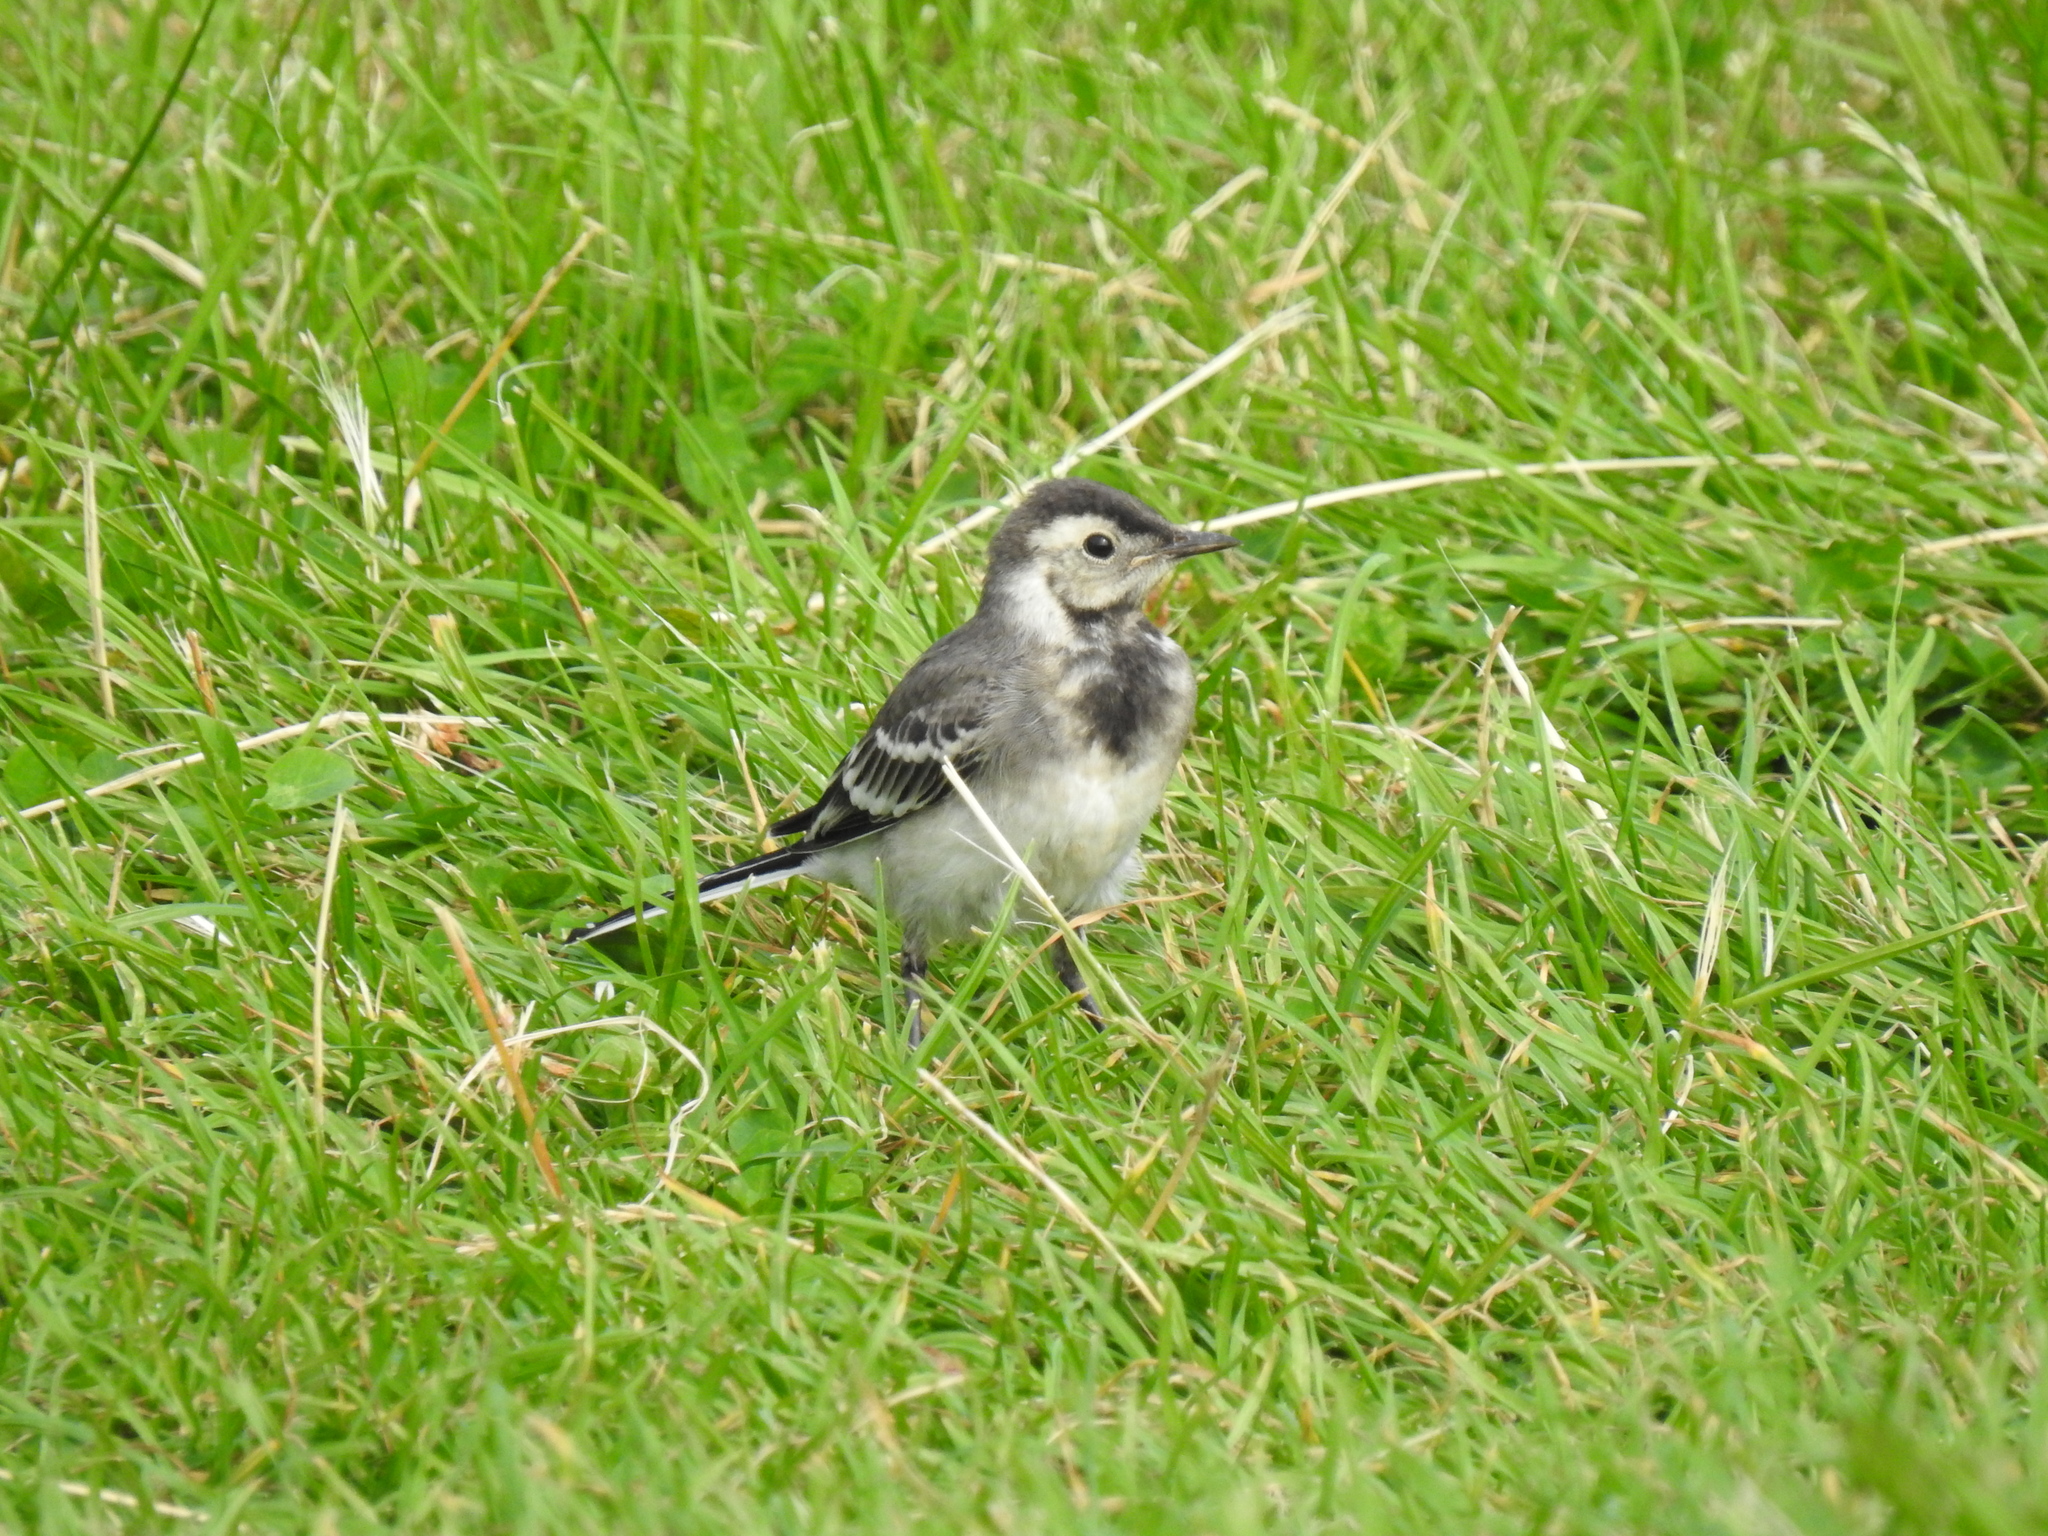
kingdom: Animalia
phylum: Chordata
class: Aves
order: Passeriformes
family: Motacillidae
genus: Motacilla
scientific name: Motacilla alba
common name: White wagtail
